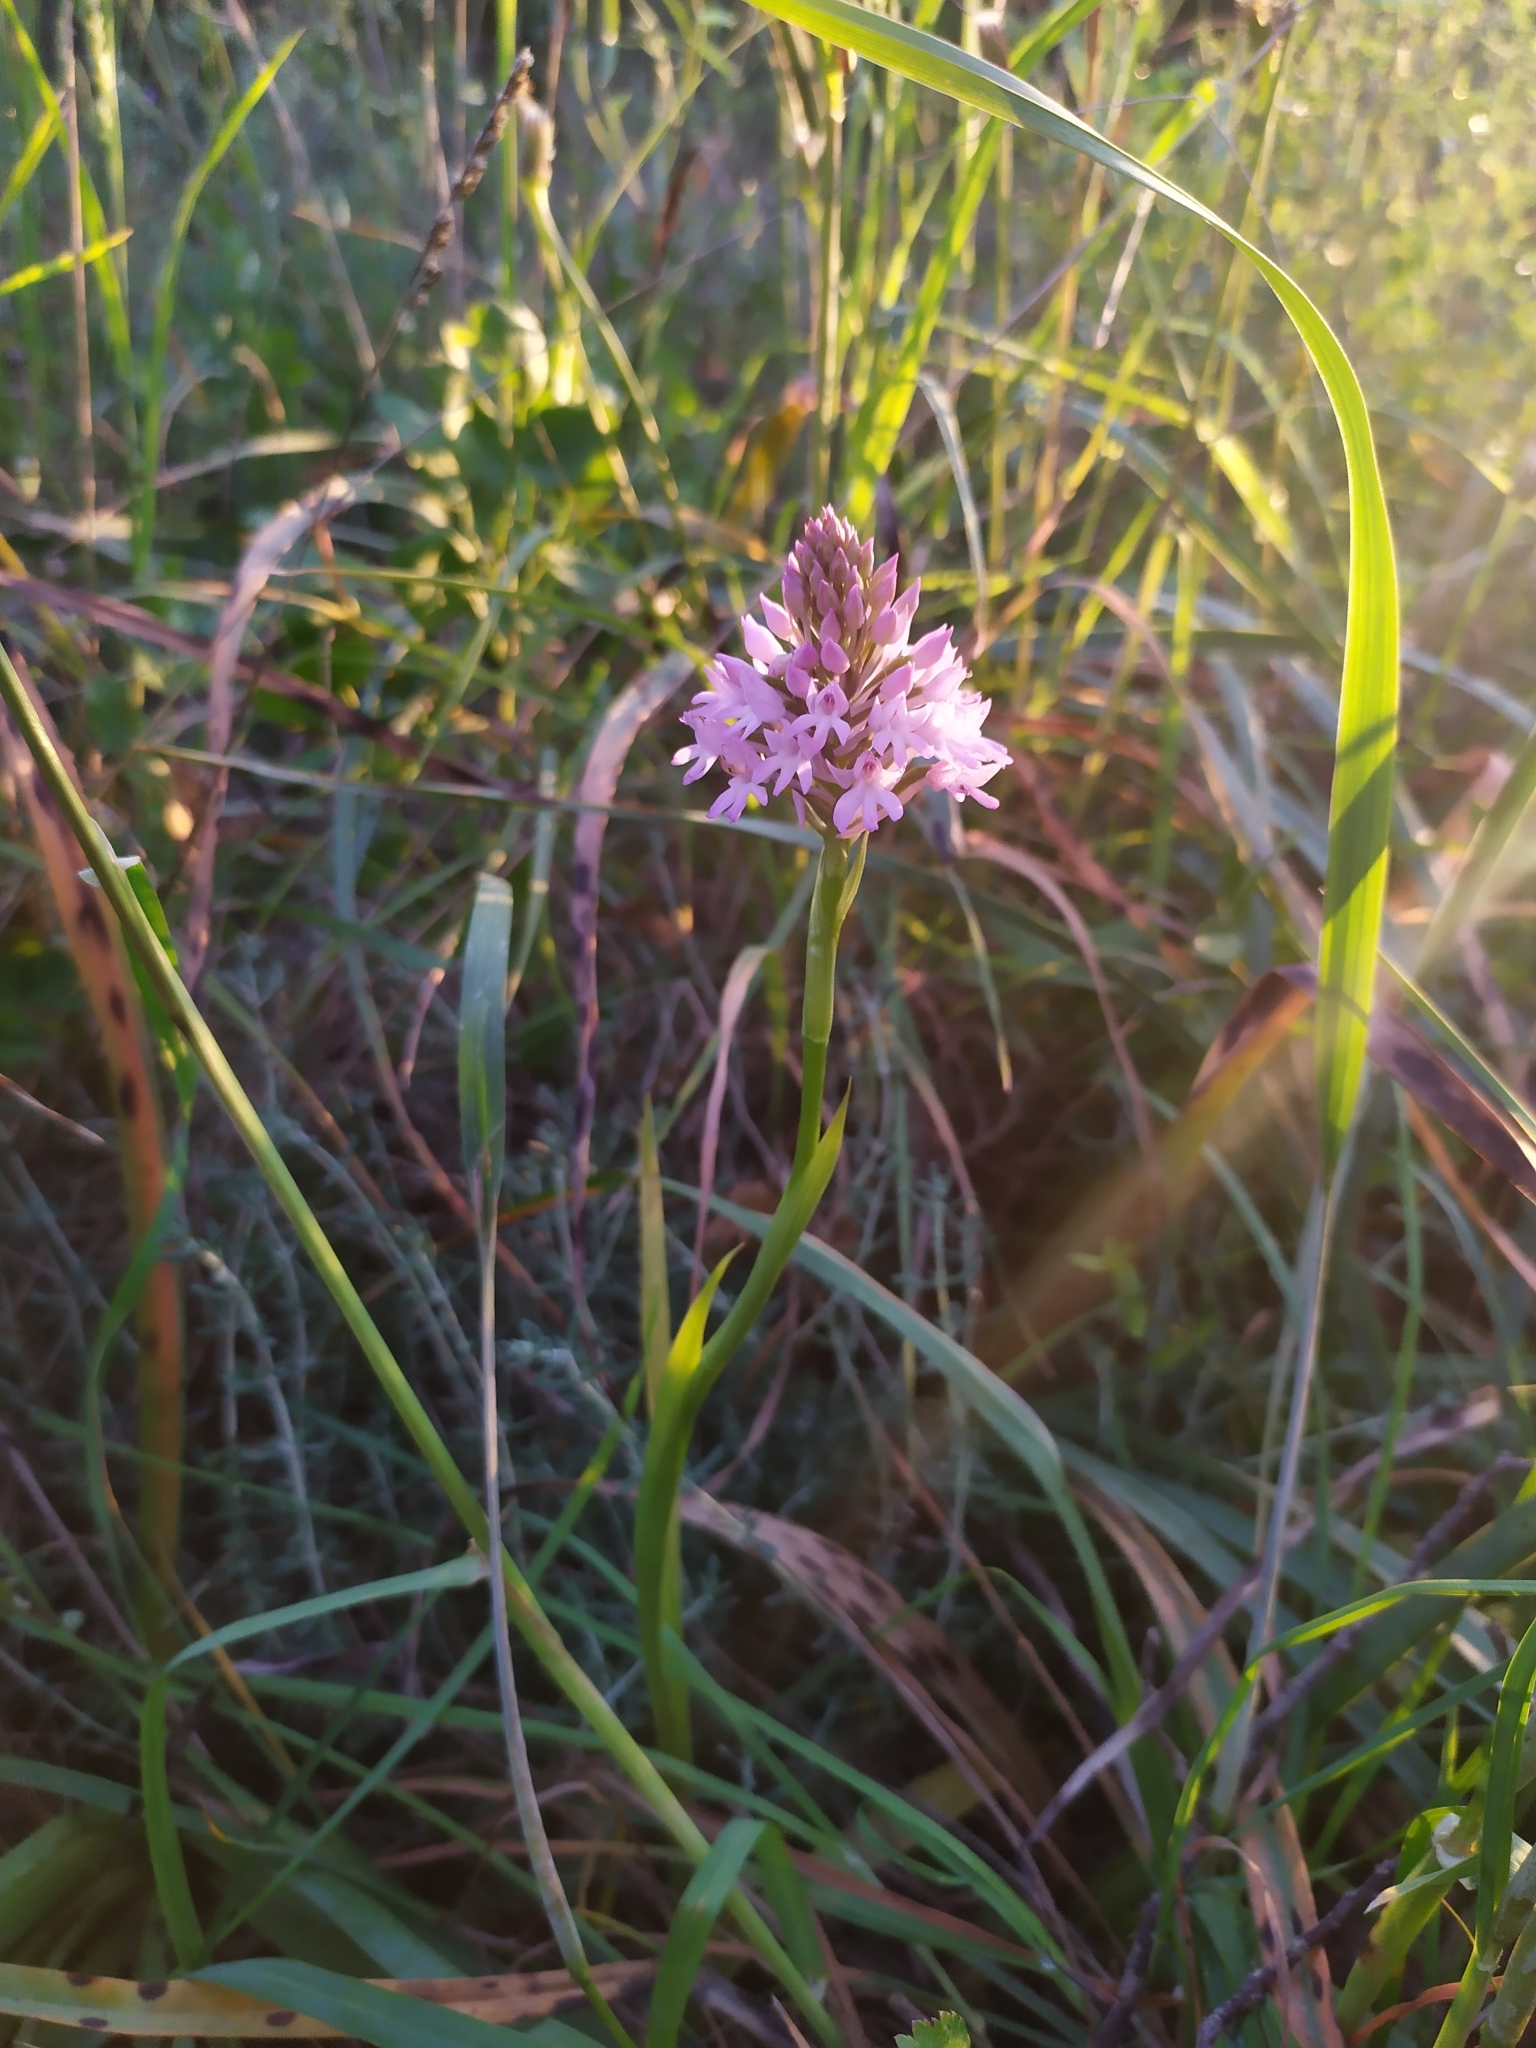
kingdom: Plantae
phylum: Tracheophyta
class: Liliopsida
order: Asparagales
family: Orchidaceae
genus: Anacamptis
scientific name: Anacamptis pyramidalis
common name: Pyramidal orchid
